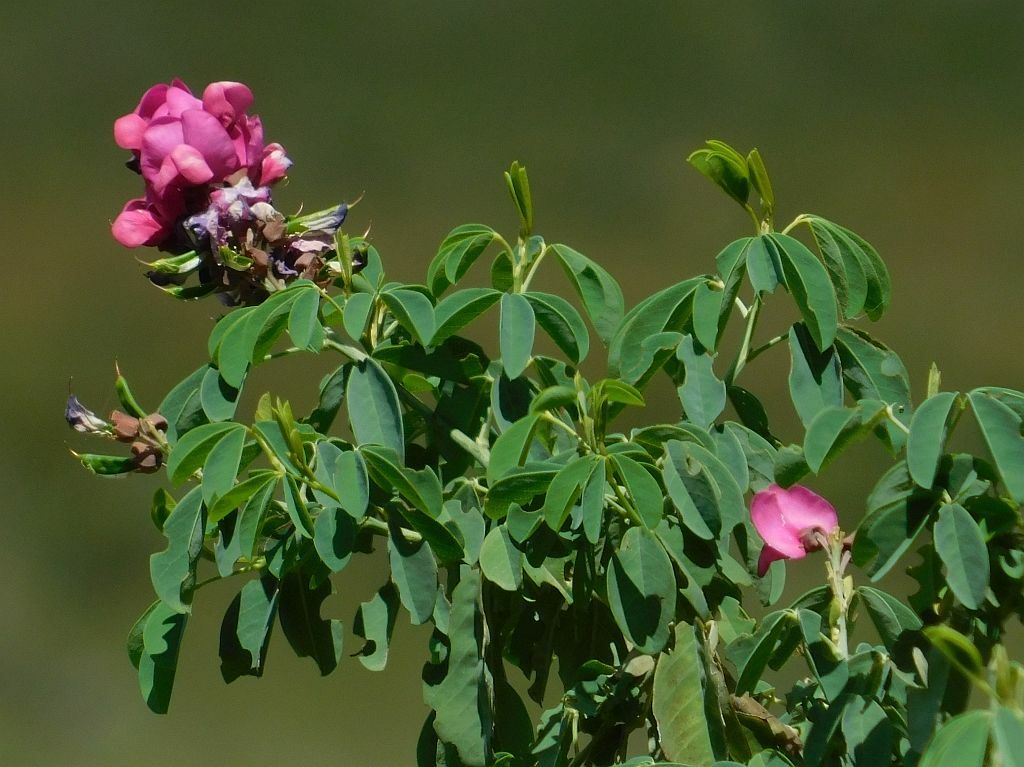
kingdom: Plantae
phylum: Tracheophyta
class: Magnoliopsida
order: Fabales
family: Fabaceae
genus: Hypocalyptus
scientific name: Hypocalyptus coluteoides
